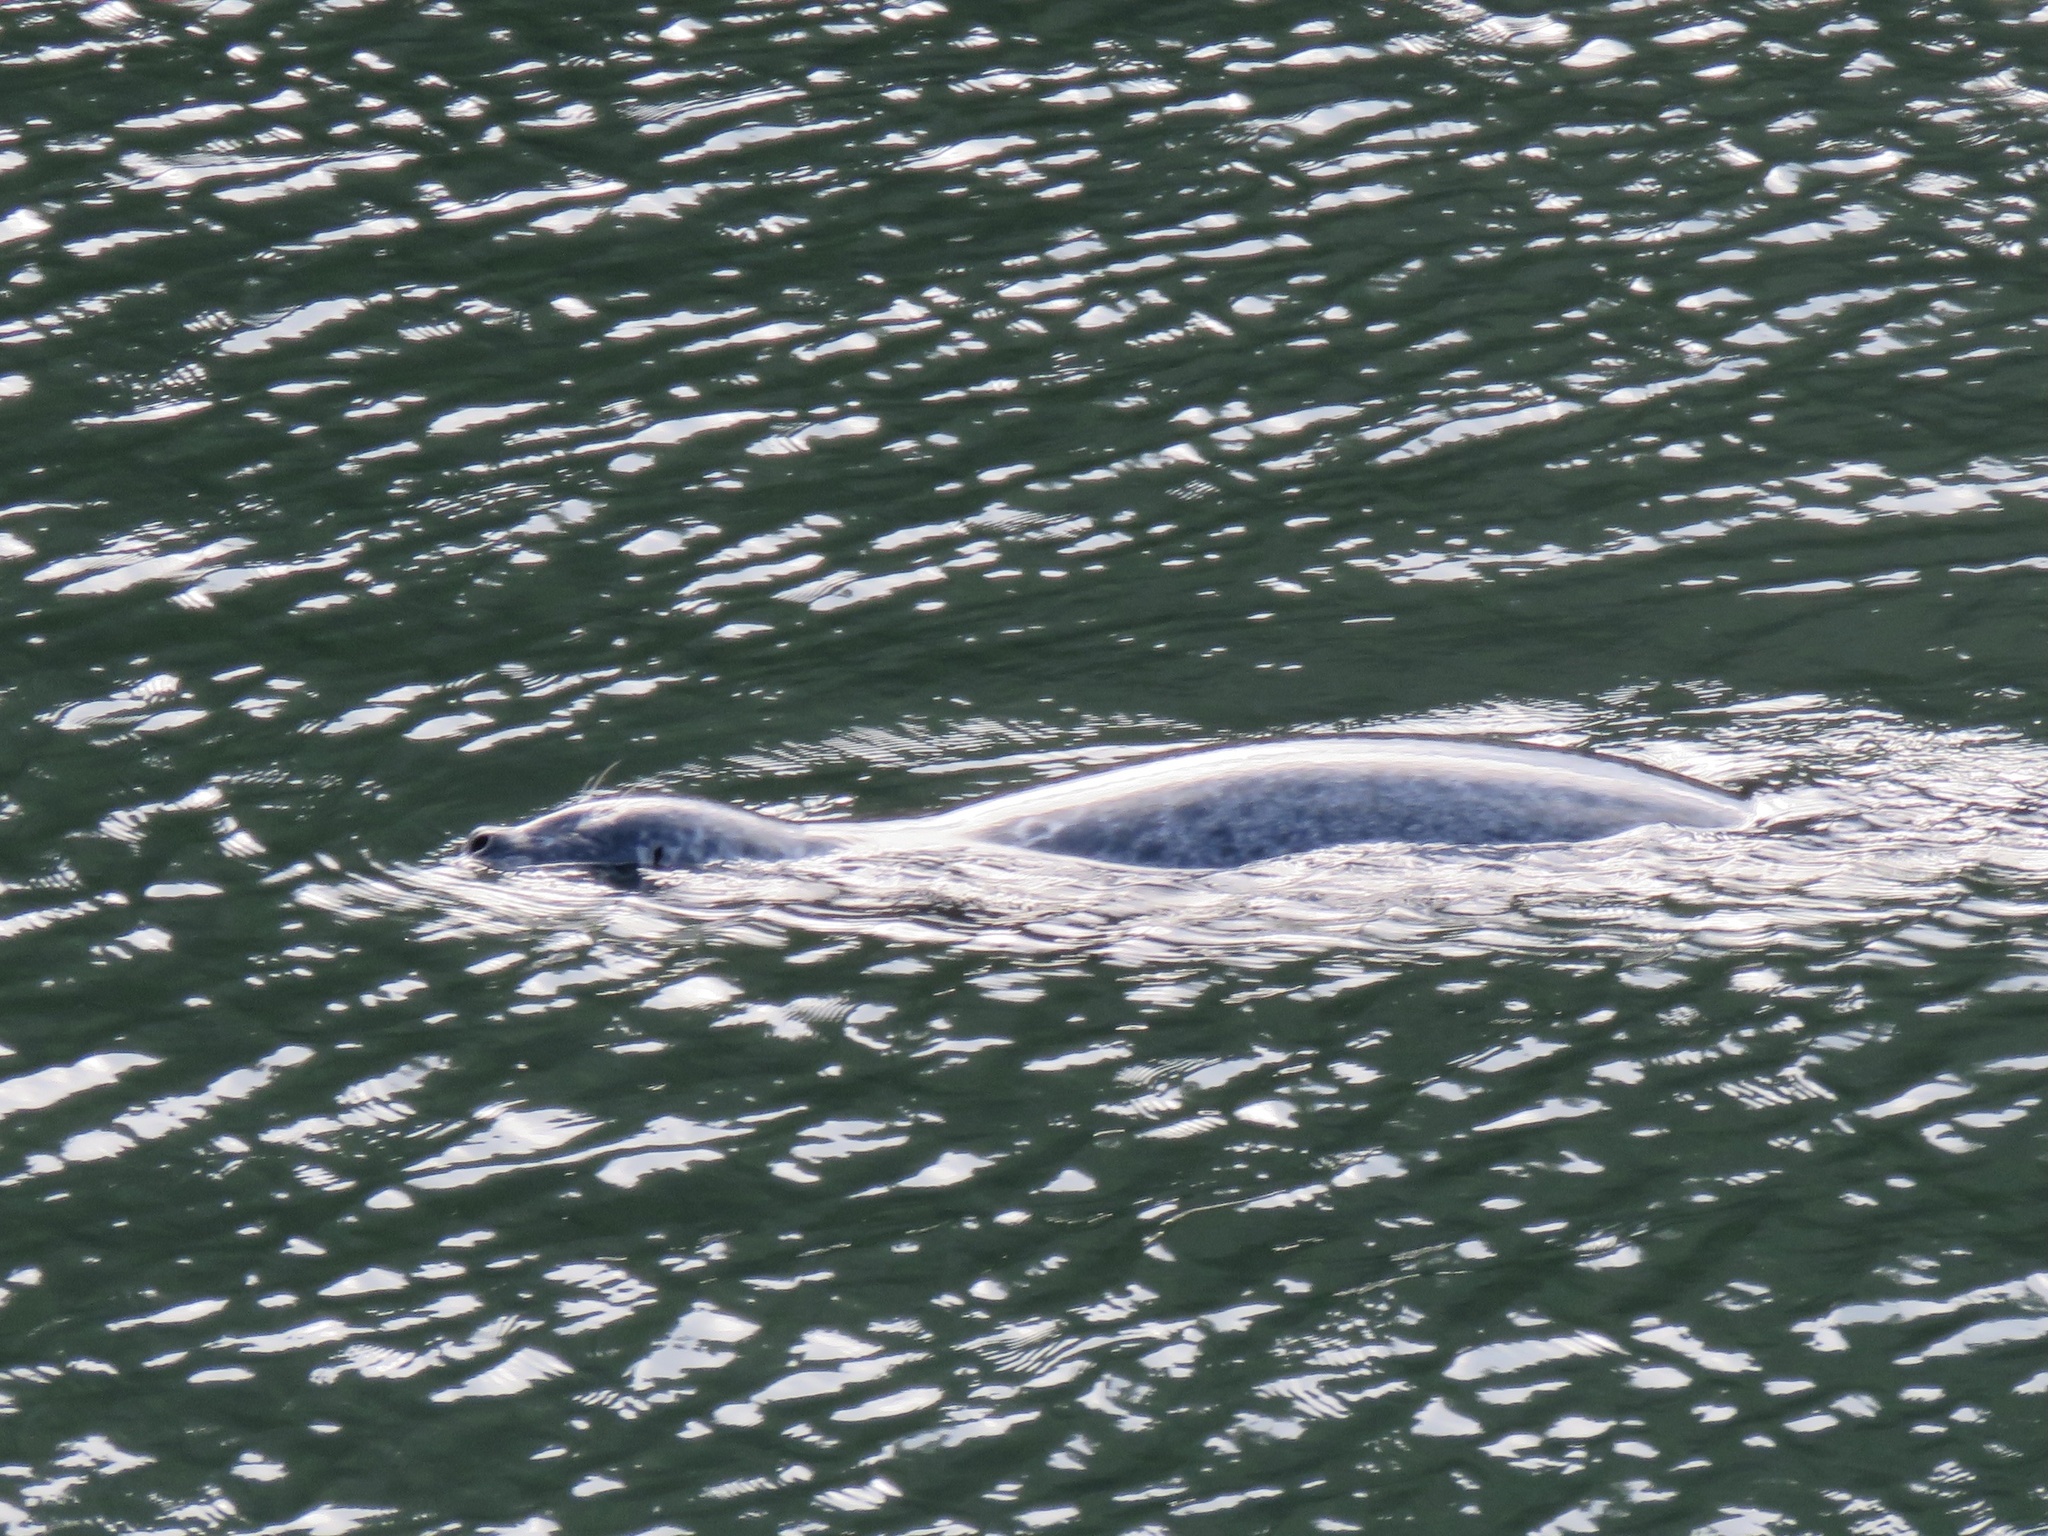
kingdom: Animalia
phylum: Chordata
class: Mammalia
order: Carnivora
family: Phocidae
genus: Phoca
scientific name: Phoca vitulina
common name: Harbor seal
